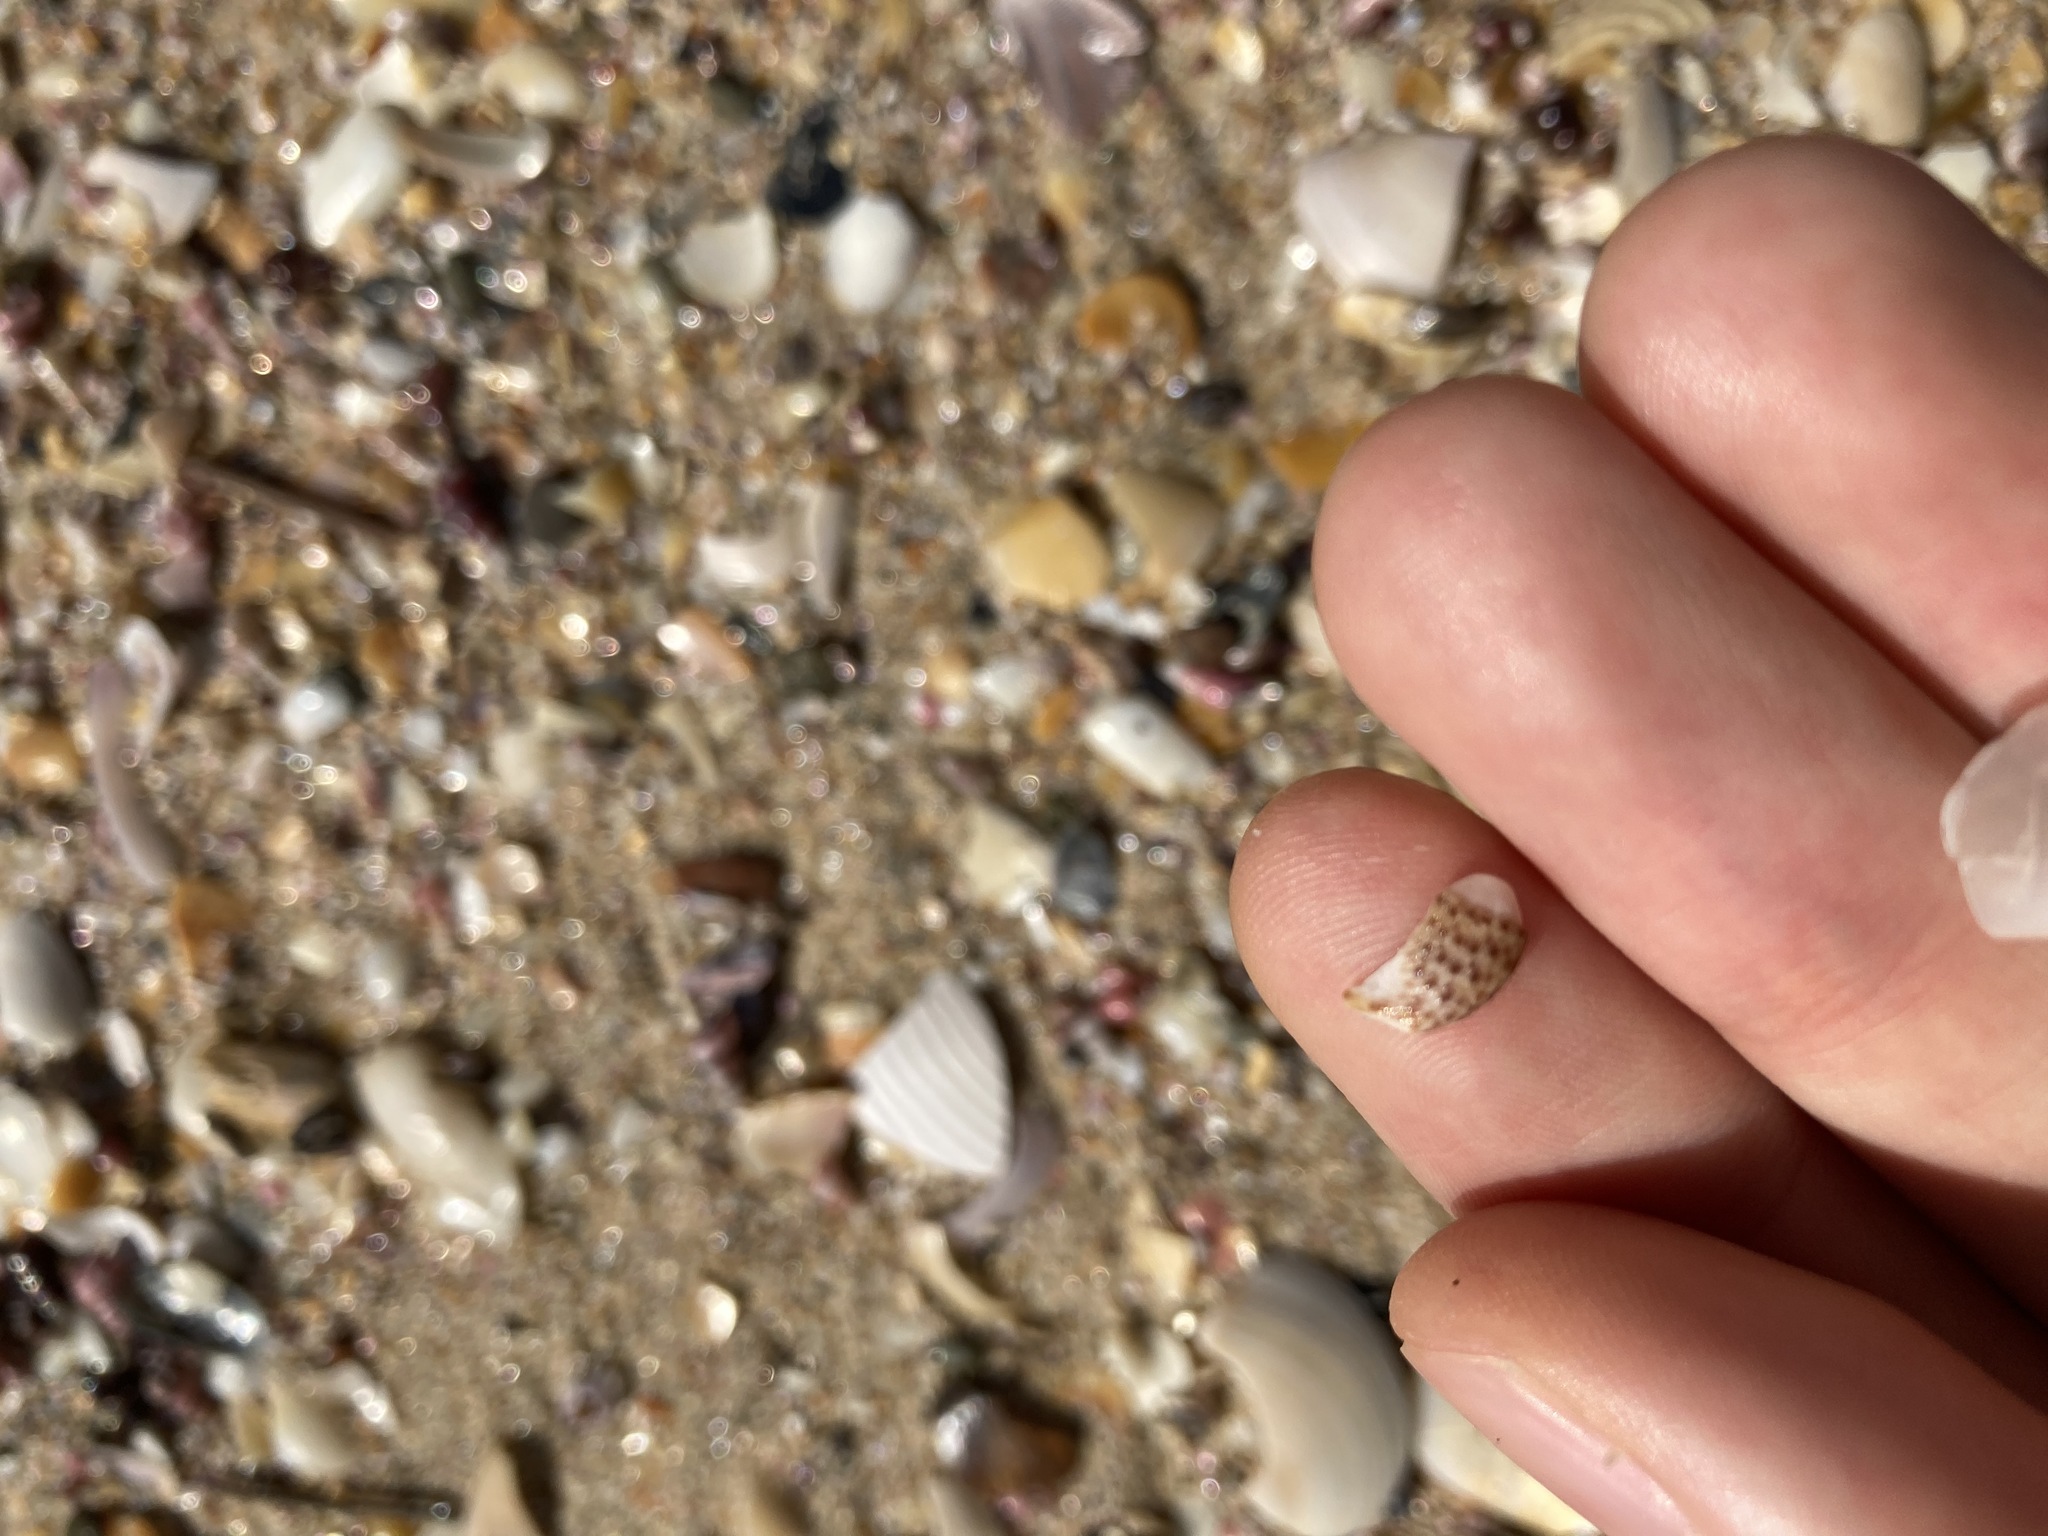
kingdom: Animalia
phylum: Mollusca
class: Gastropoda
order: Trochida
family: Trochidae
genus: Calthalotia
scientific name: Calthalotia fragum
